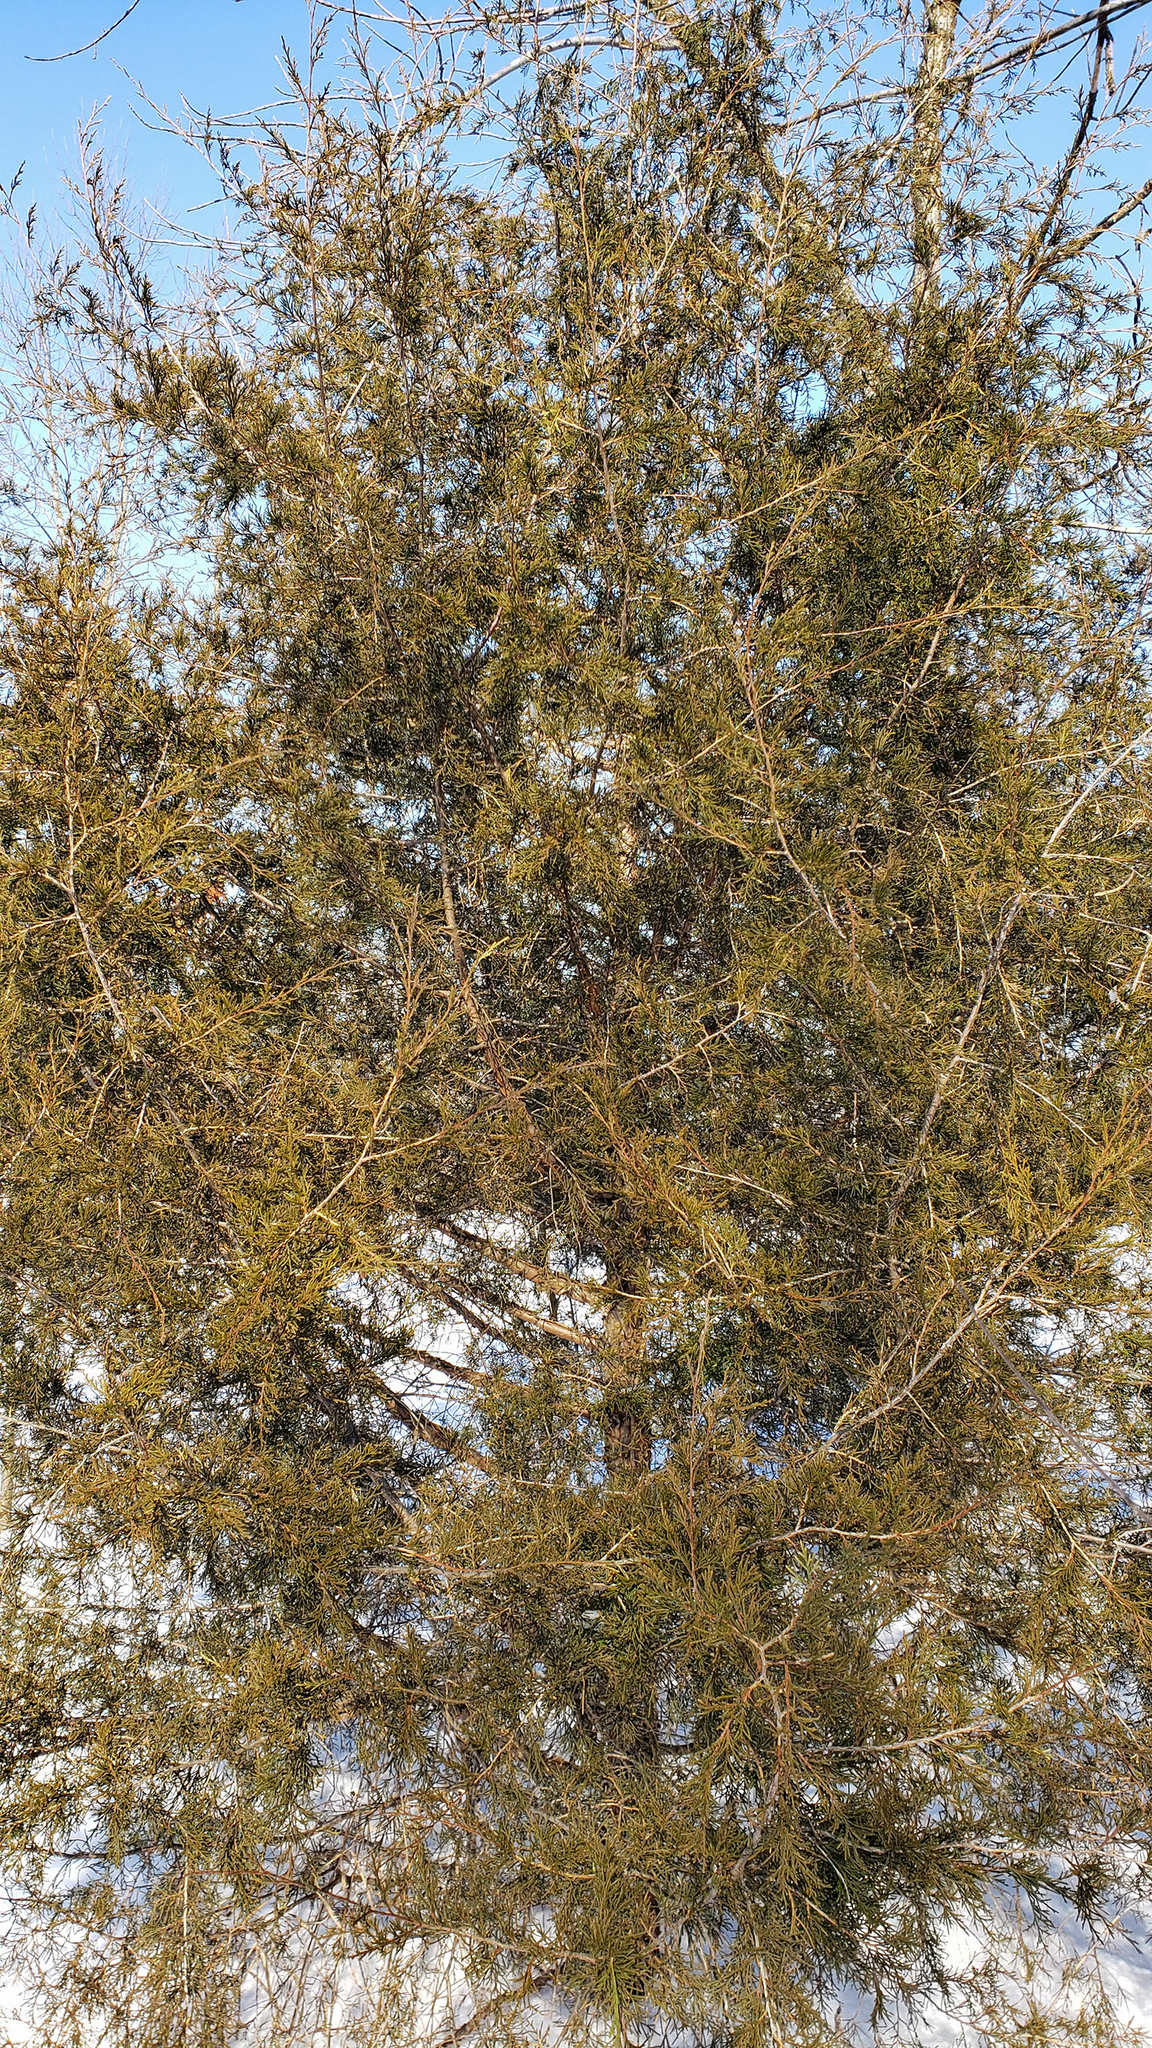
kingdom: Plantae
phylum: Tracheophyta
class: Pinopsida
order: Pinales
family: Cupressaceae
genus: Juniperus
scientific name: Juniperus virginiana
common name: Red juniper
